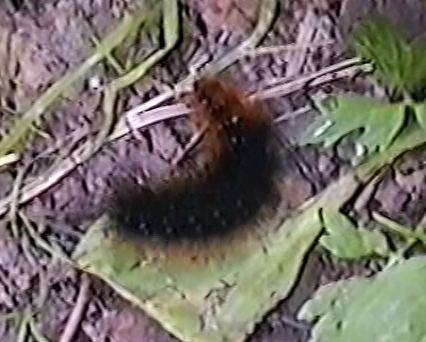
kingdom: Animalia
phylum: Arthropoda
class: Insecta
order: Lepidoptera
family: Erebidae
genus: Arctia
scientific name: Arctia caja
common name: Garden tiger
